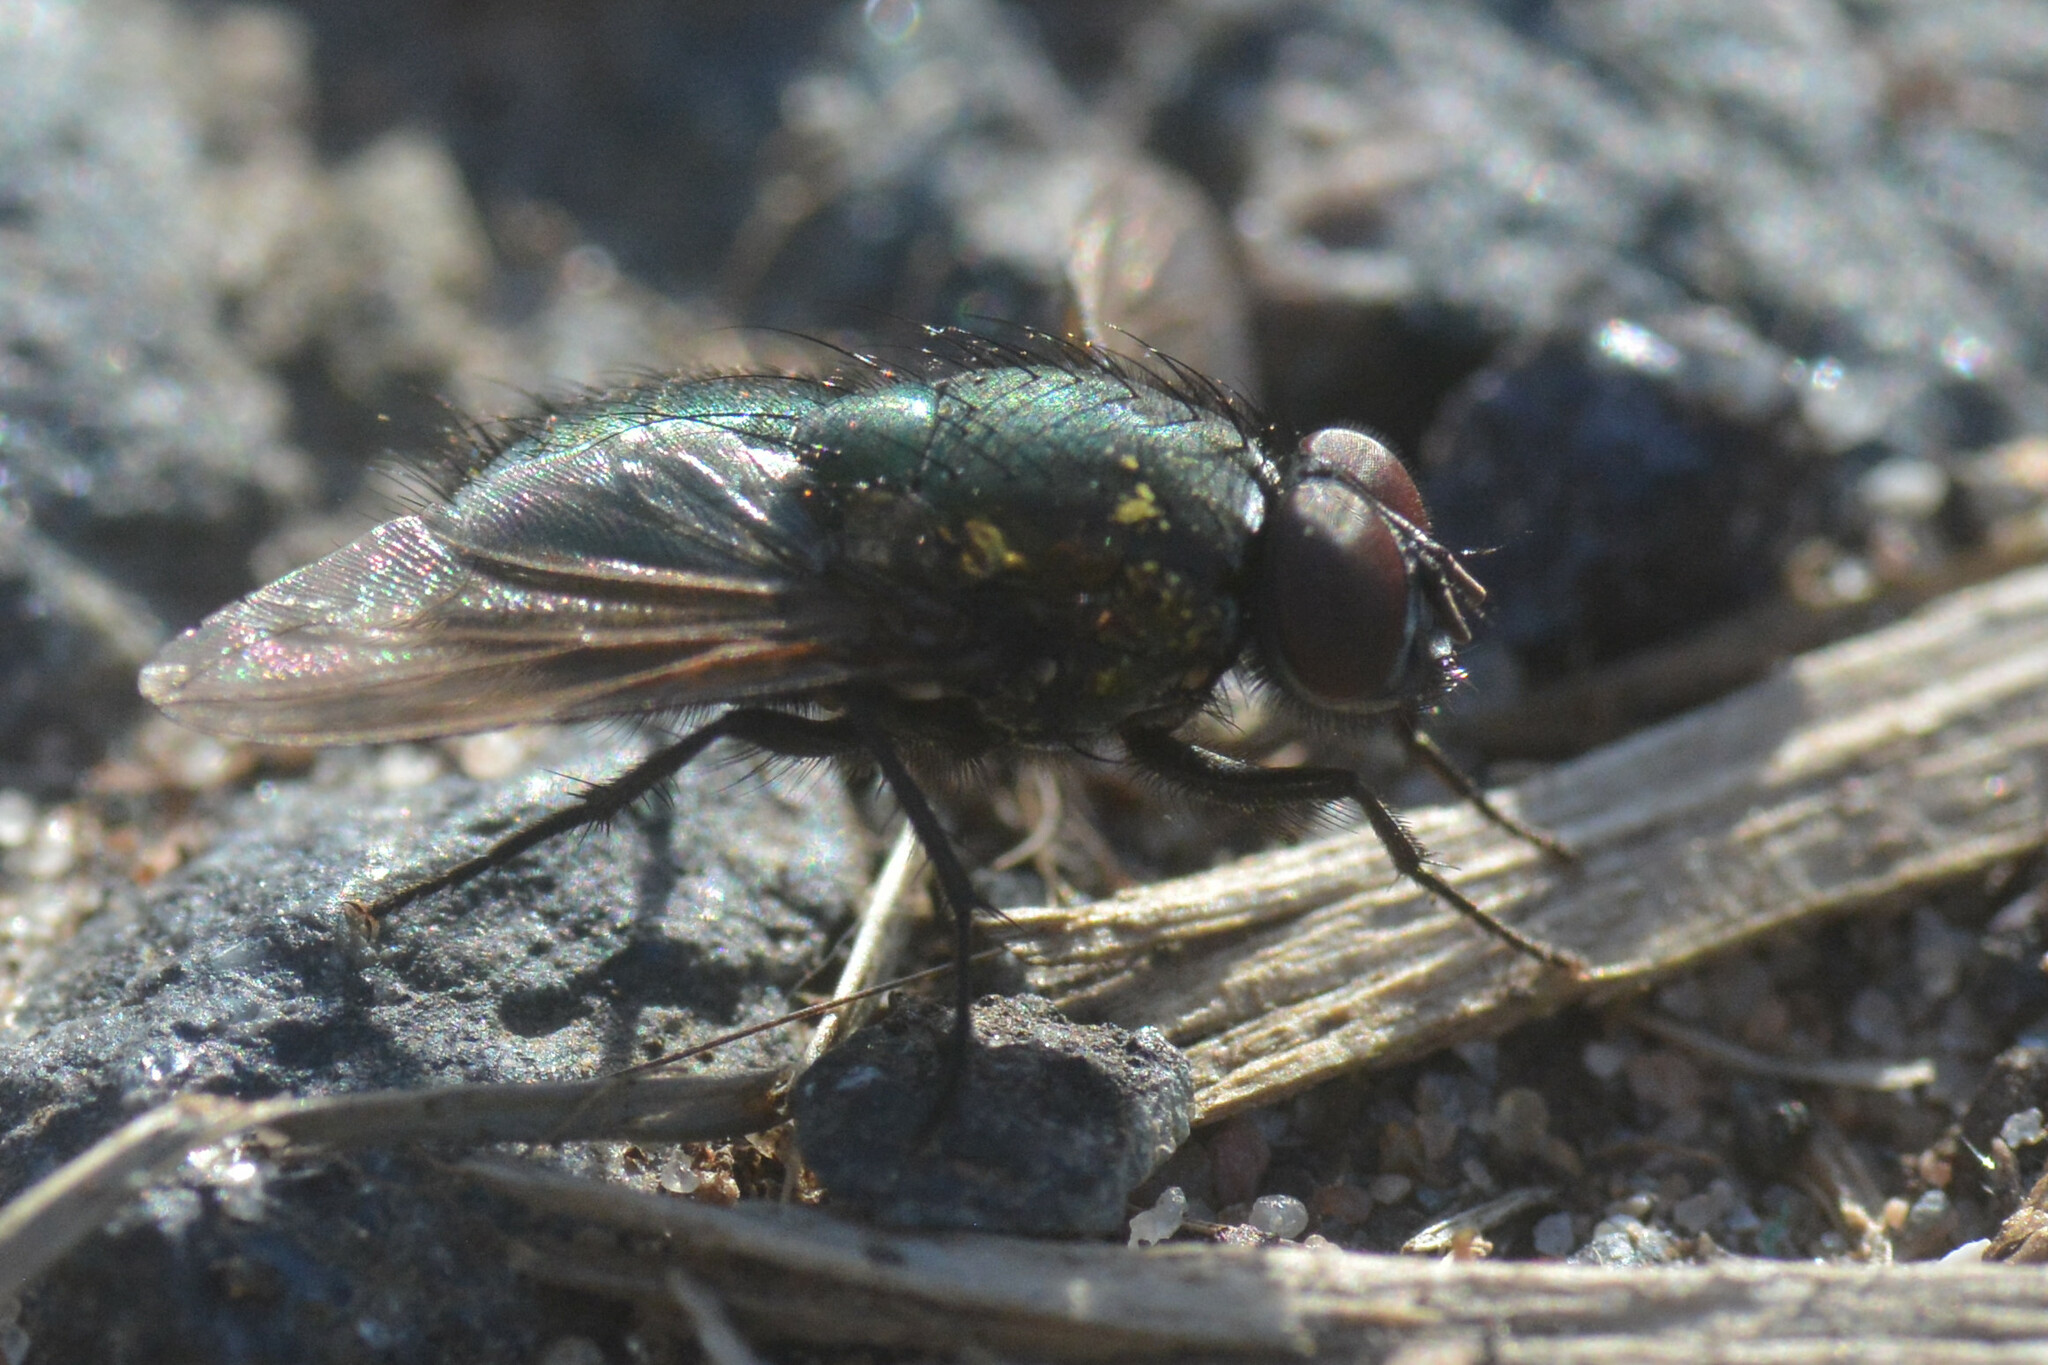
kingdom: Animalia
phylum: Arthropoda
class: Insecta
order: Diptera
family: Muscidae
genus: Dasyphora
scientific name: Dasyphora cyanella
